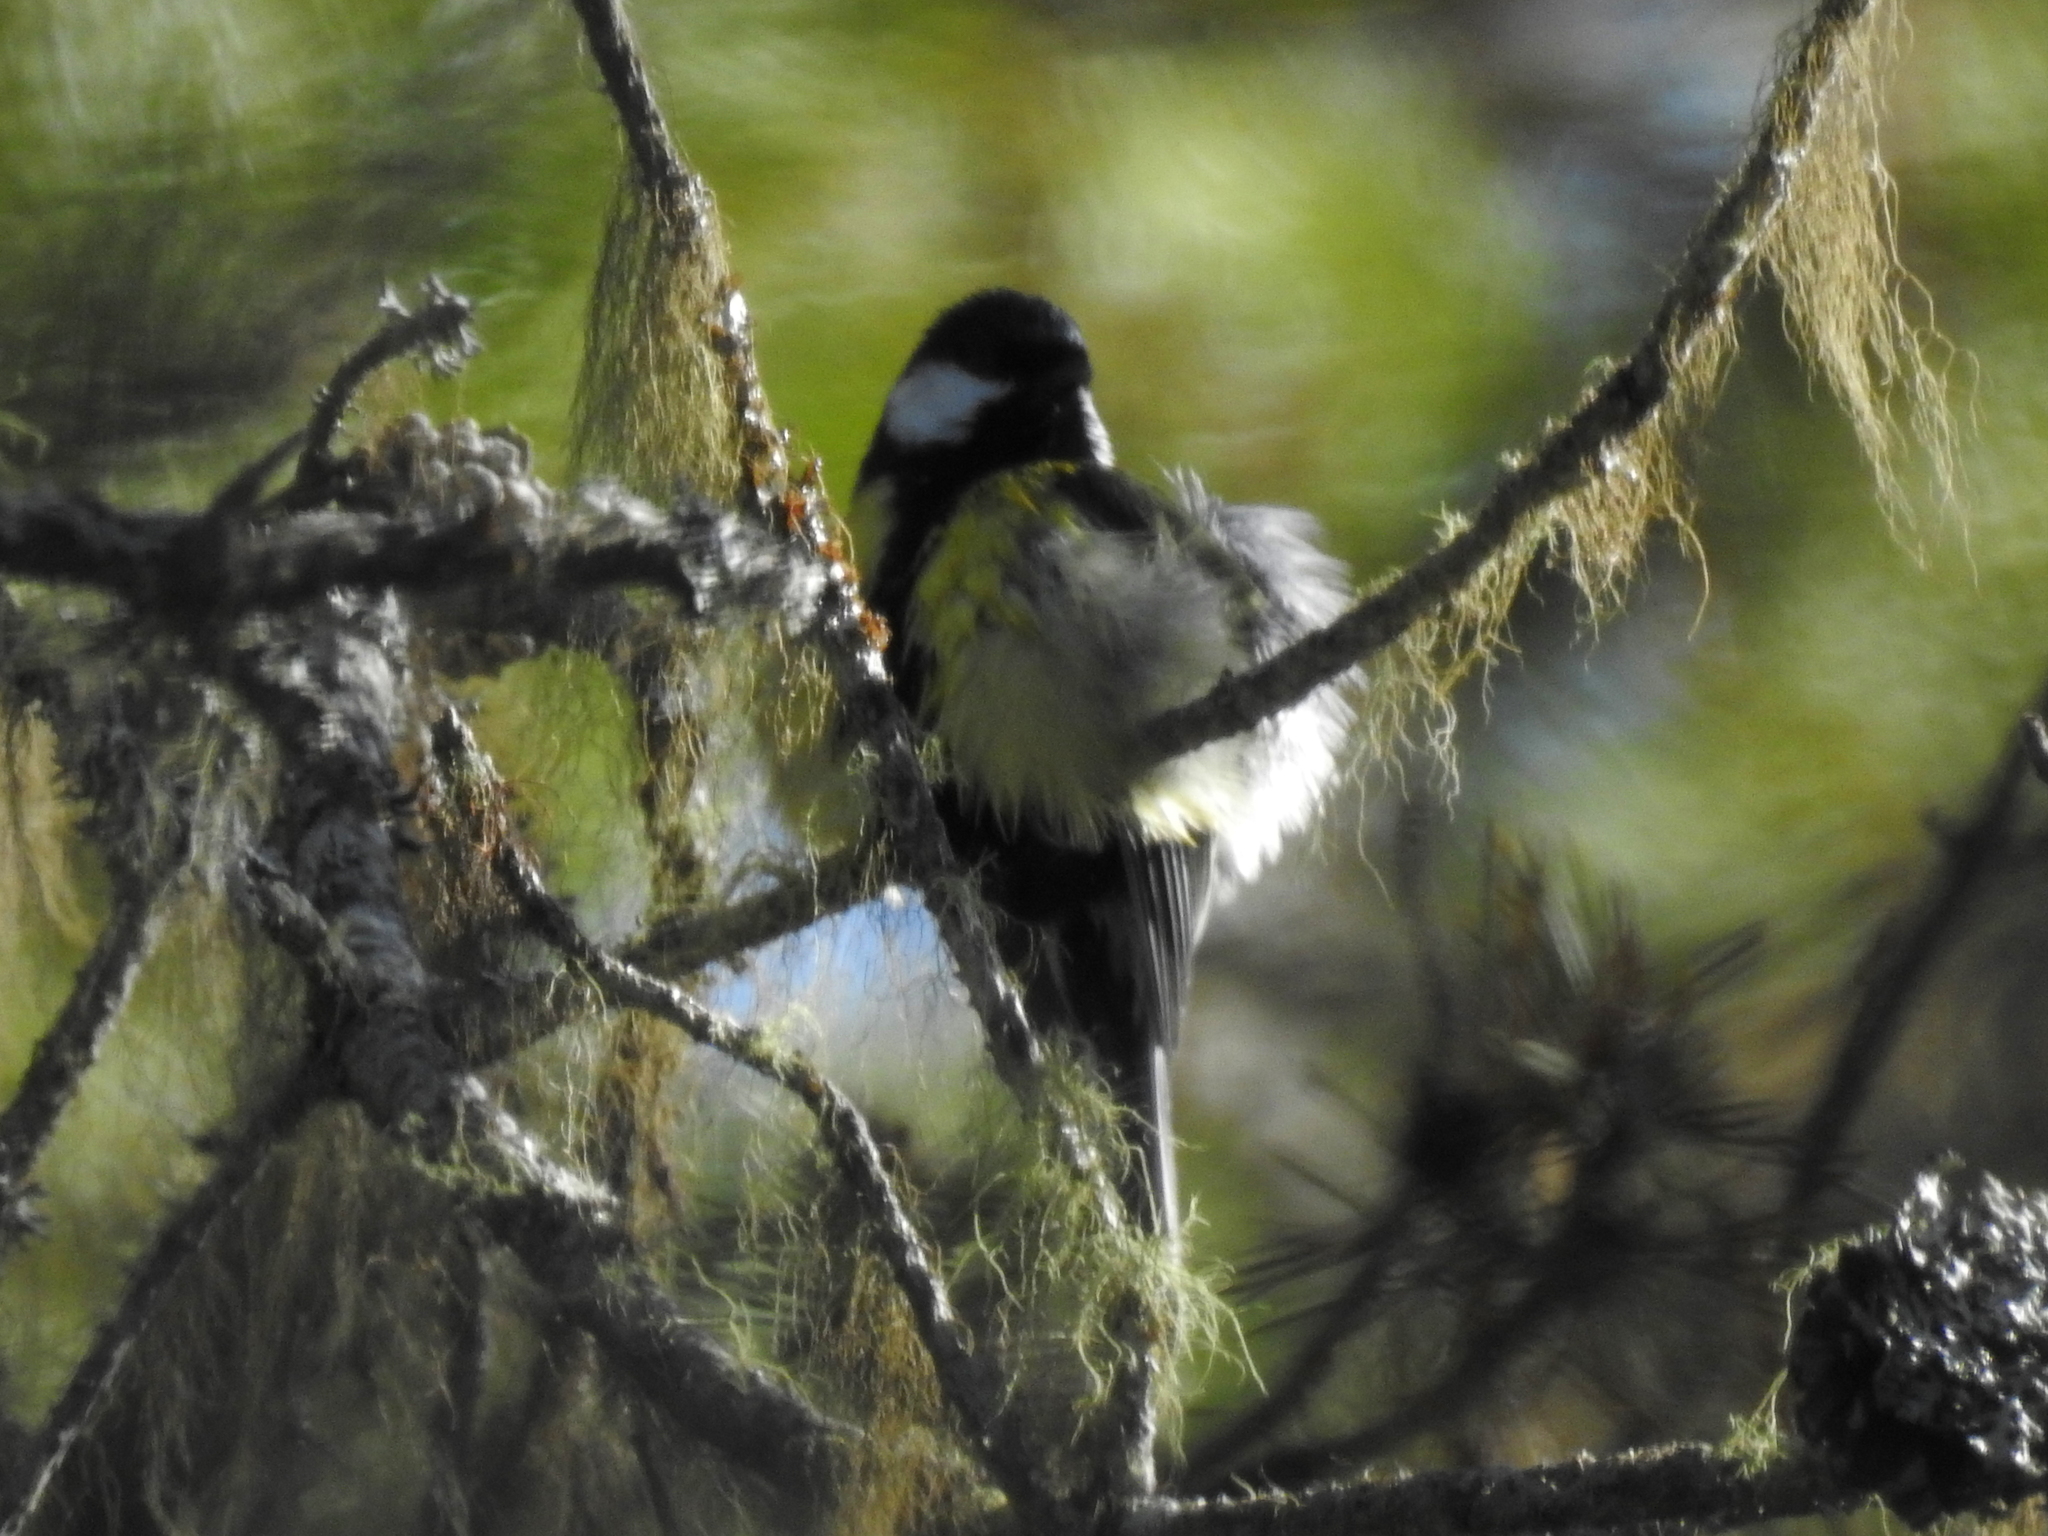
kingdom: Animalia
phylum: Chordata
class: Aves
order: Passeriformes
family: Paridae
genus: Parus
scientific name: Parus major
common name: Great tit
